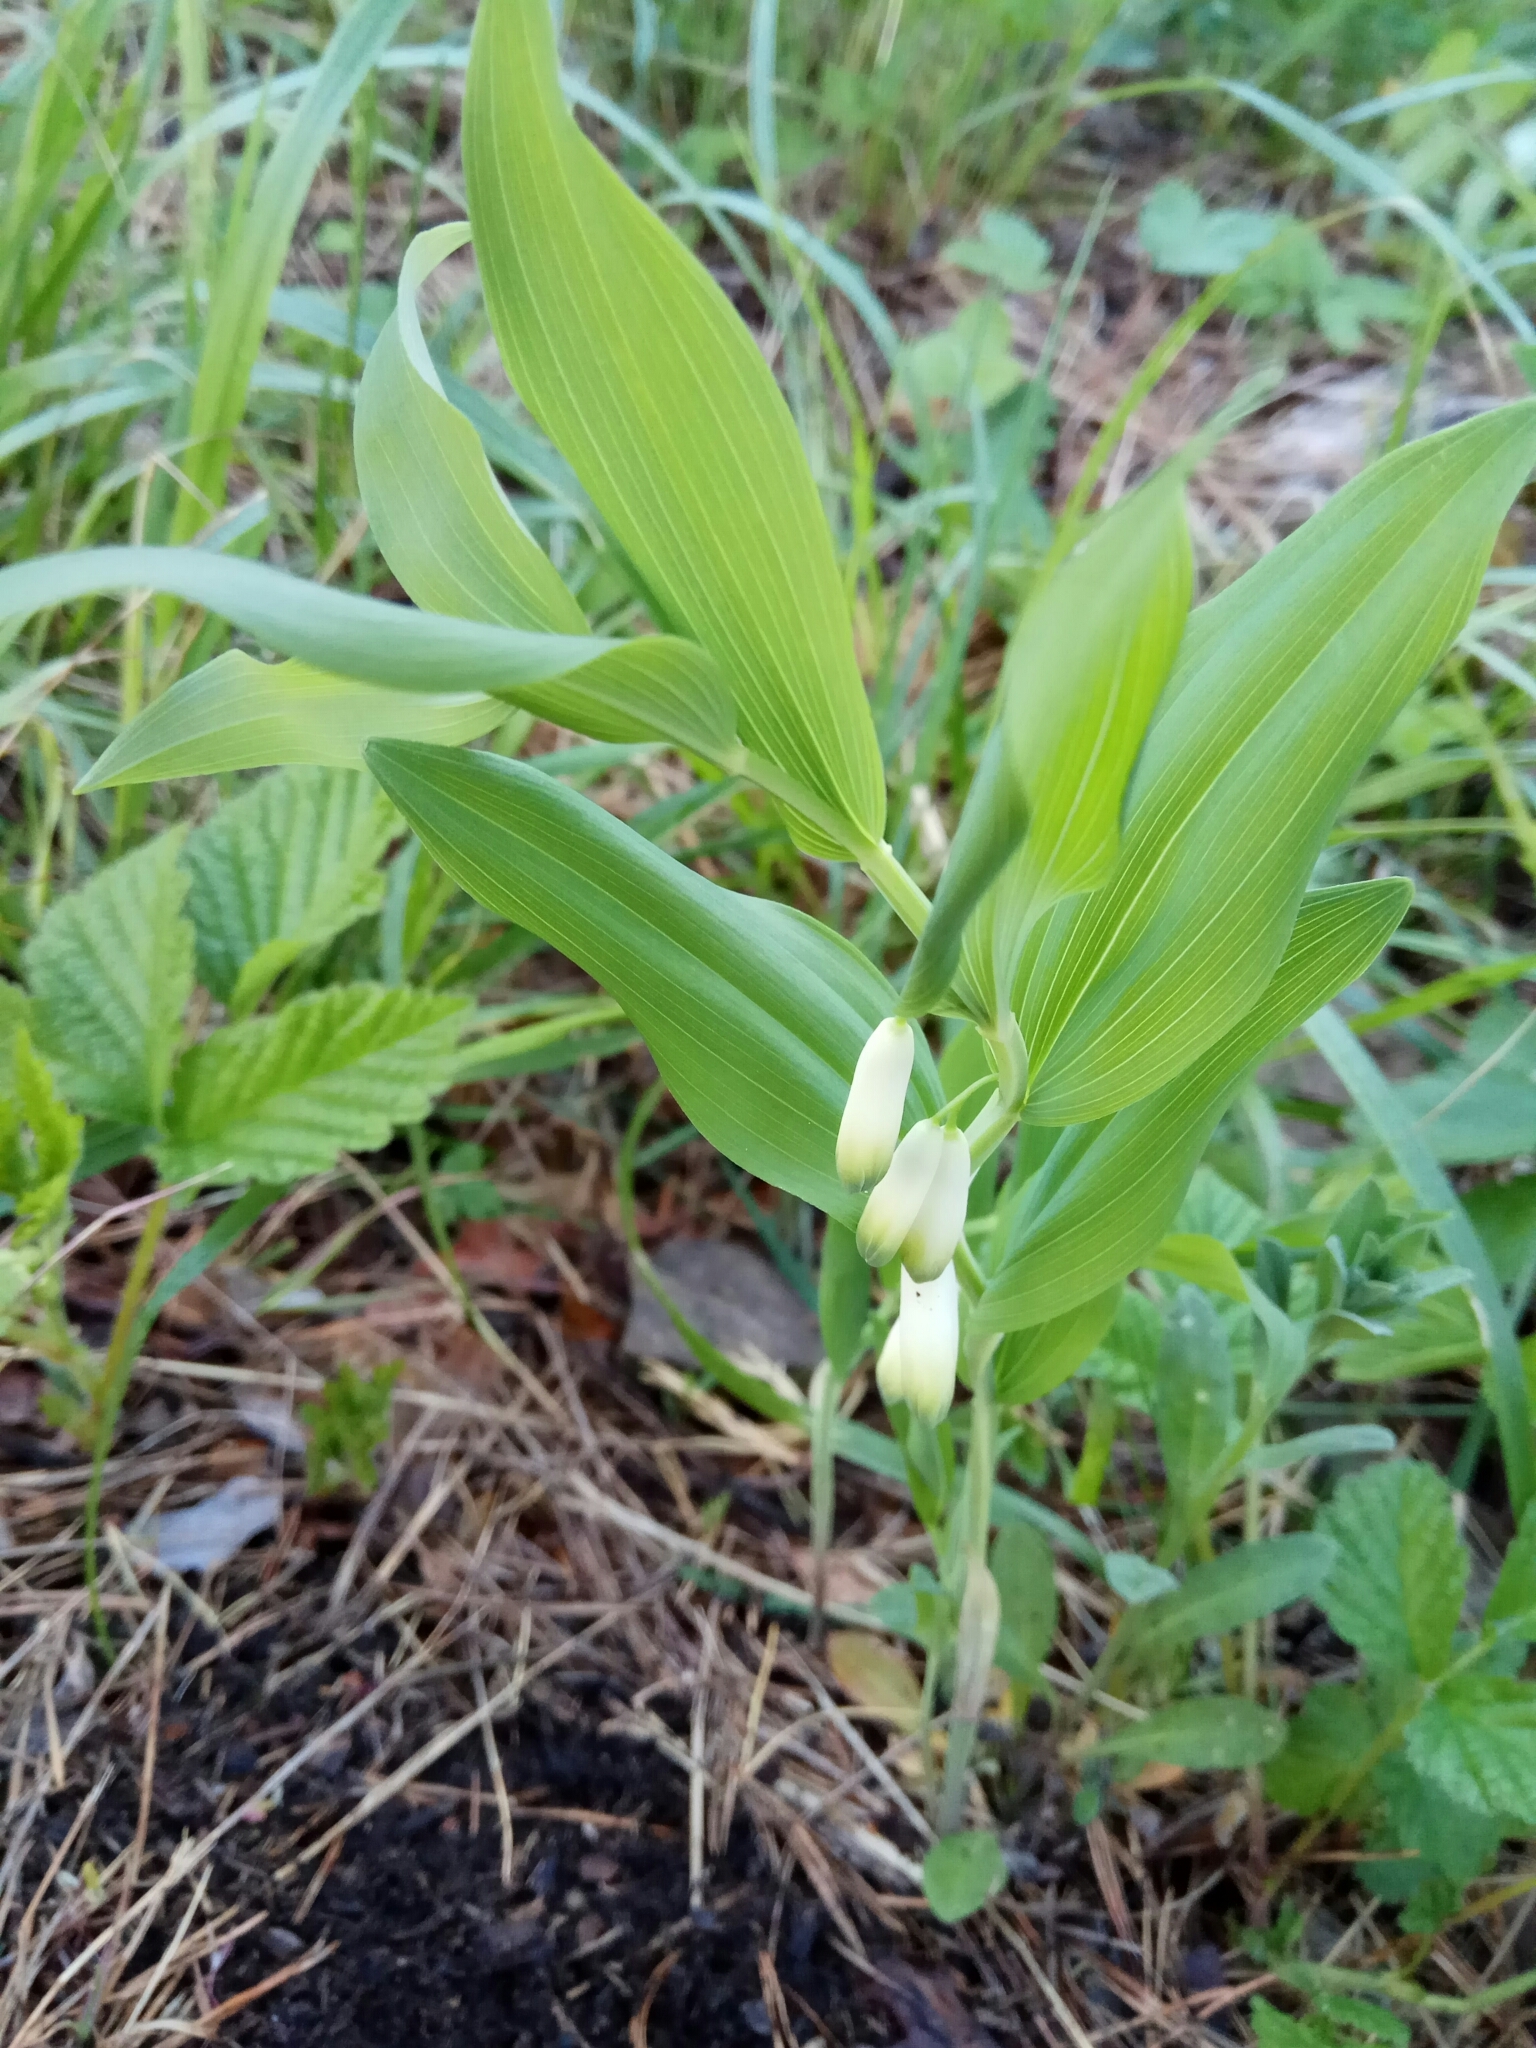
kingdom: Plantae
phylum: Tracheophyta
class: Liliopsida
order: Asparagales
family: Asparagaceae
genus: Polygonatum
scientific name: Polygonatum odoratum
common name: Angular solomon's-seal
